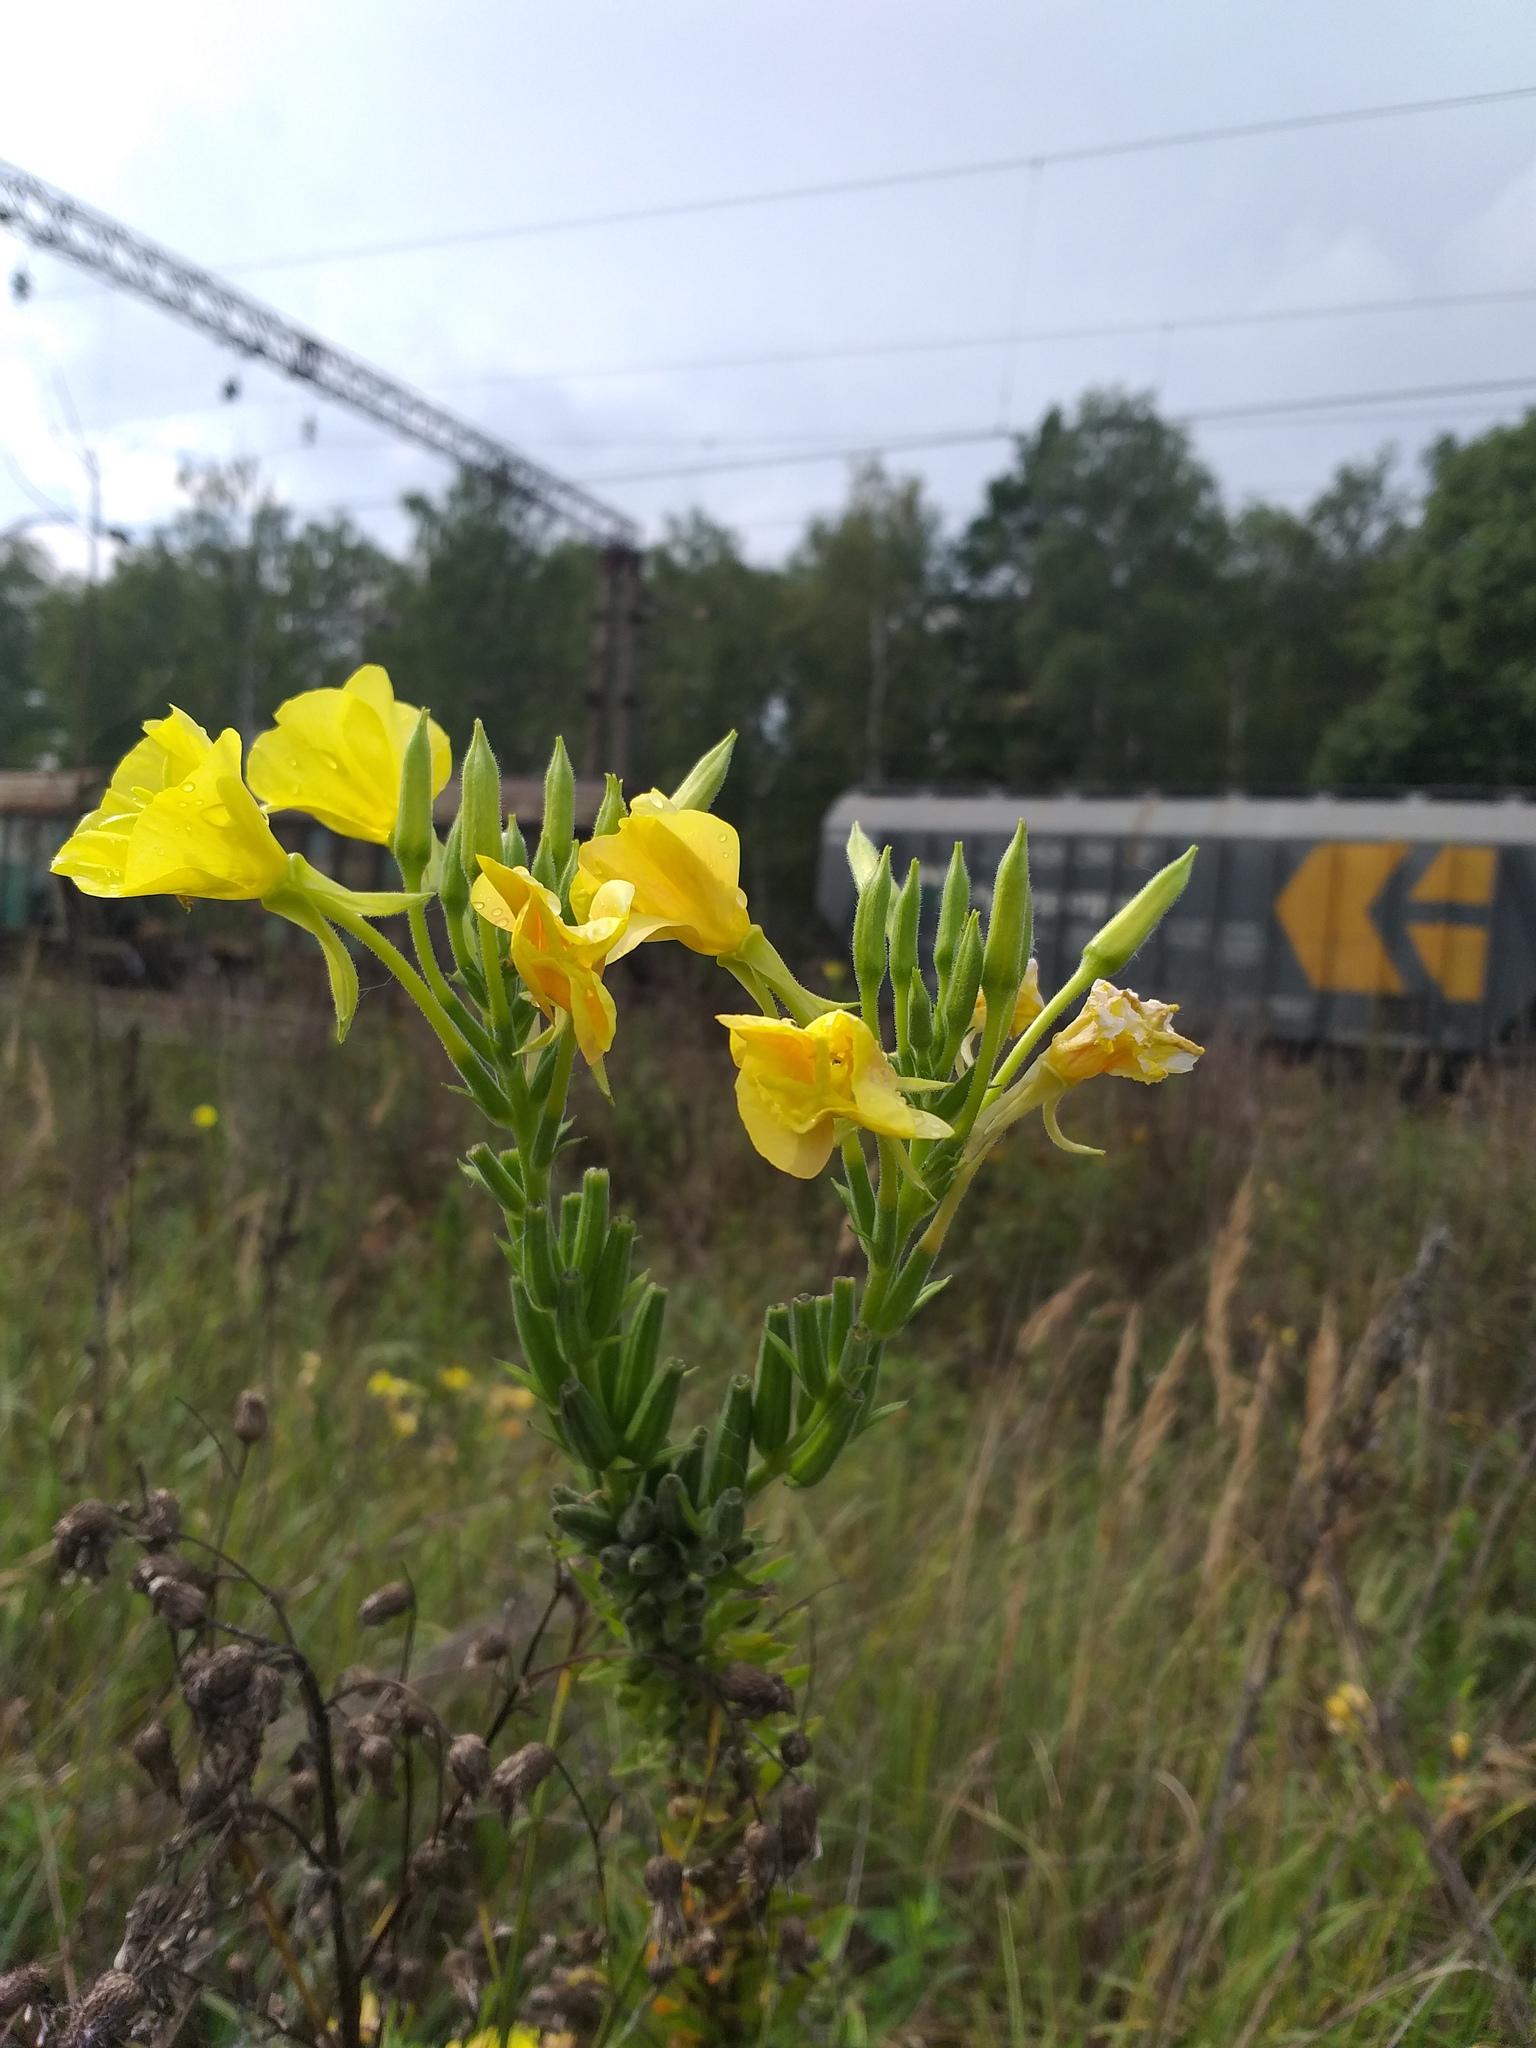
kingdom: Plantae
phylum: Tracheophyta
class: Magnoliopsida
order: Myrtales
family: Onagraceae
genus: Oenothera
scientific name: Oenothera biennis
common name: Common evening-primrose
